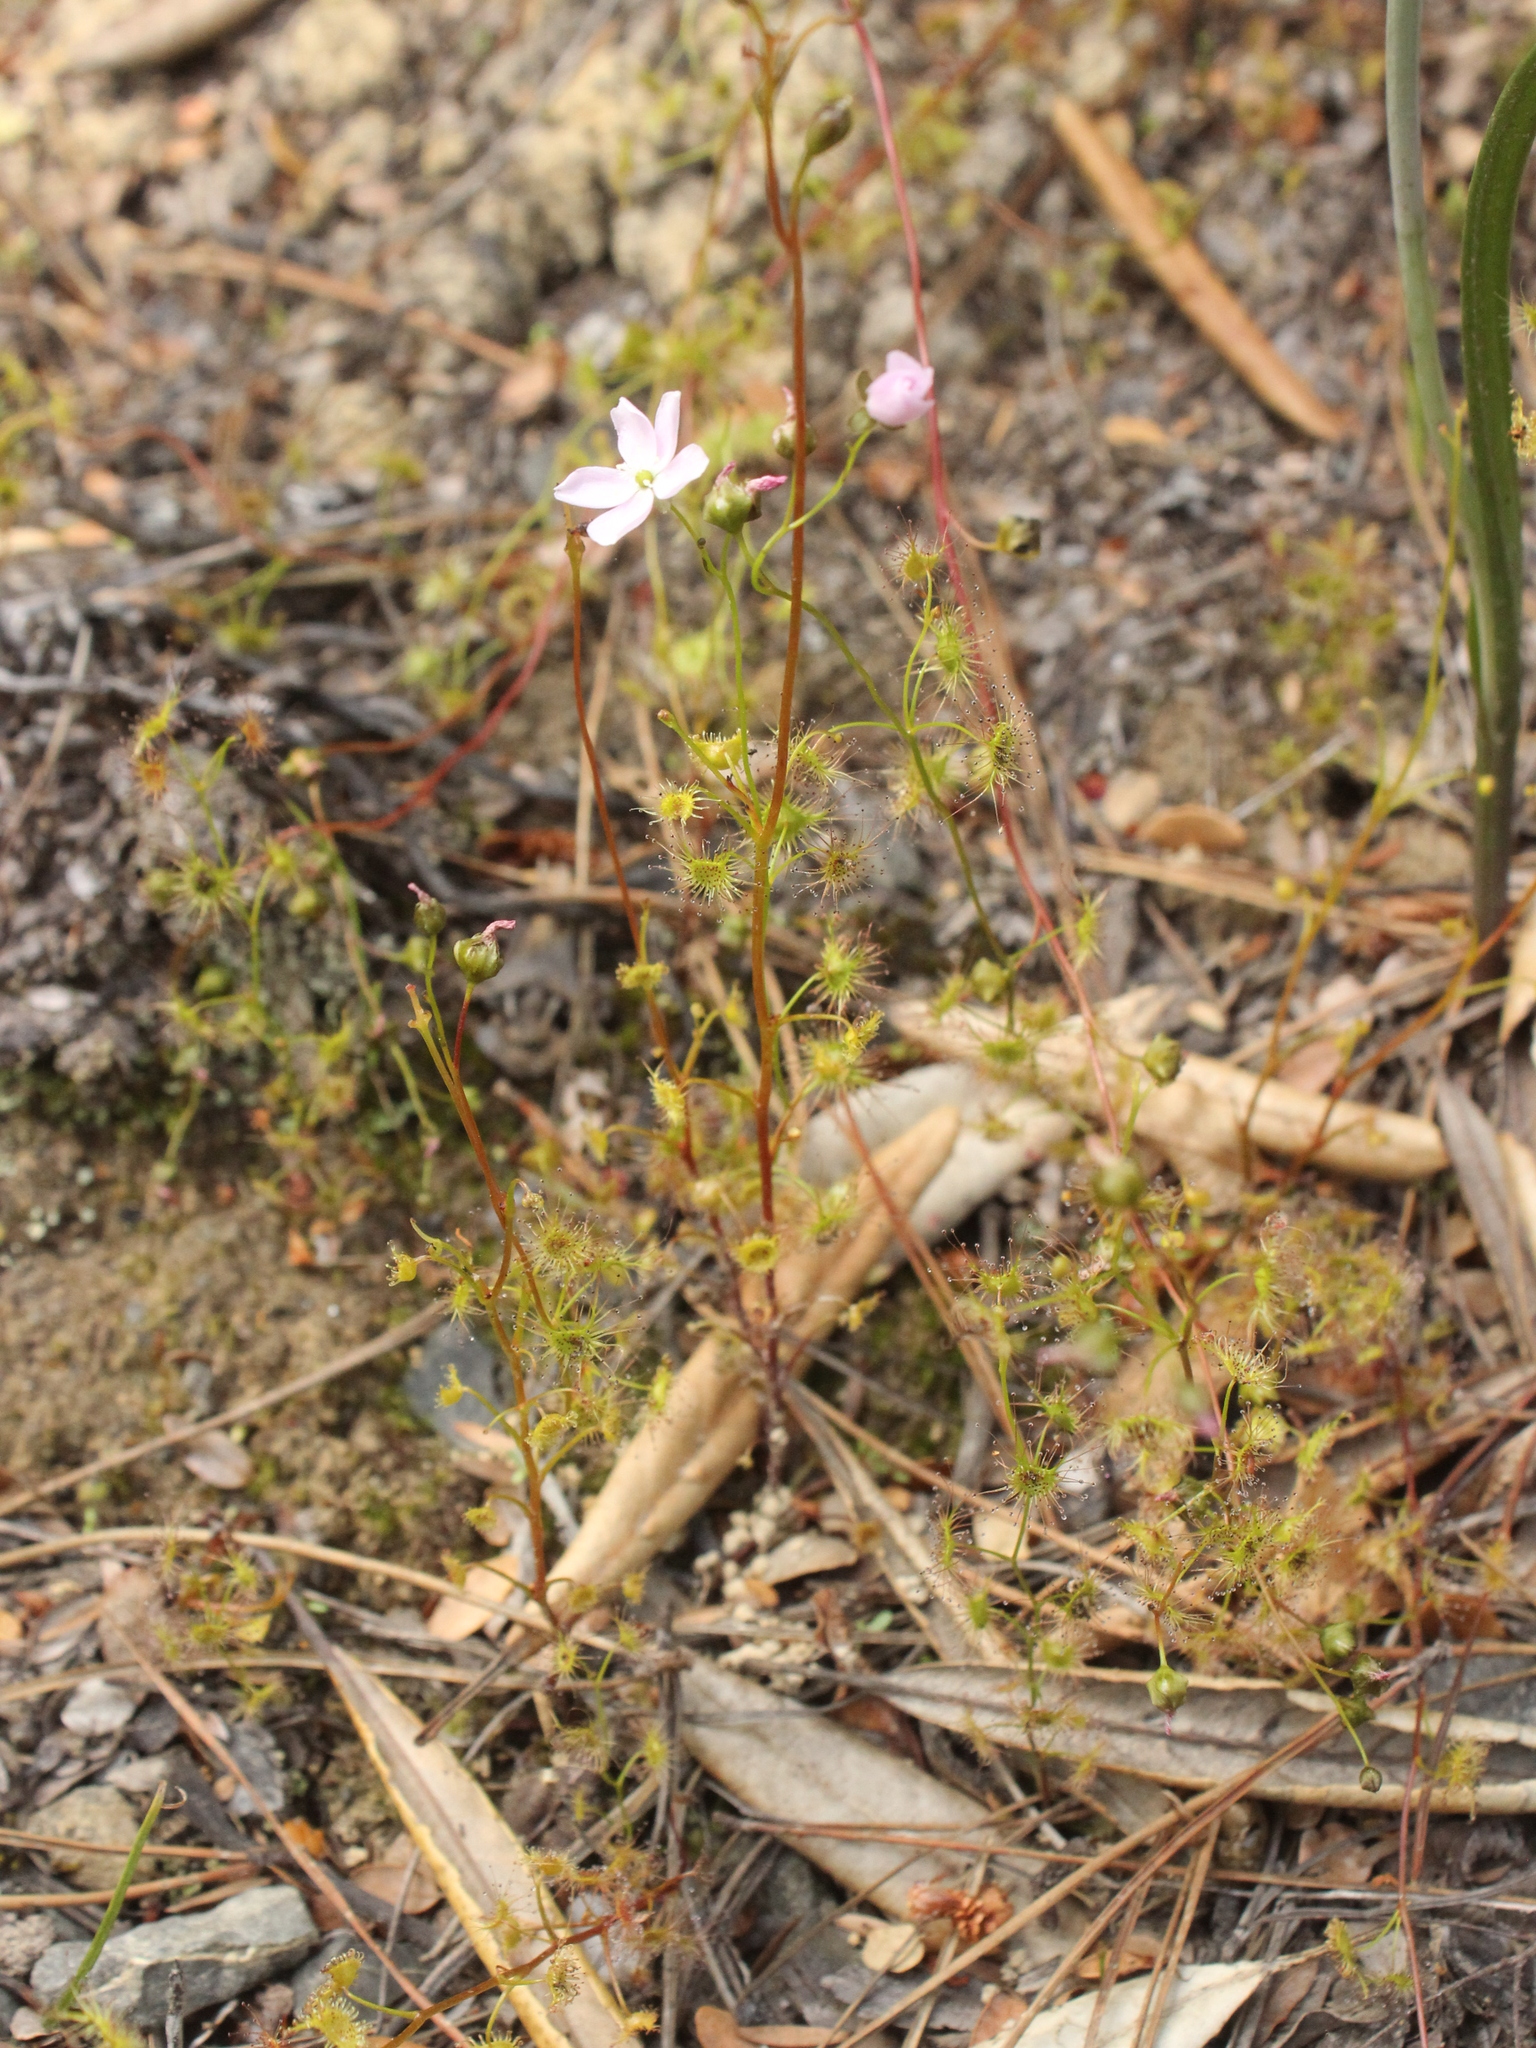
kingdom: Plantae
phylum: Tracheophyta
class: Magnoliopsida
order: Caryophyllales
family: Droseraceae
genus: Drosera
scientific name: Drosera peltata
